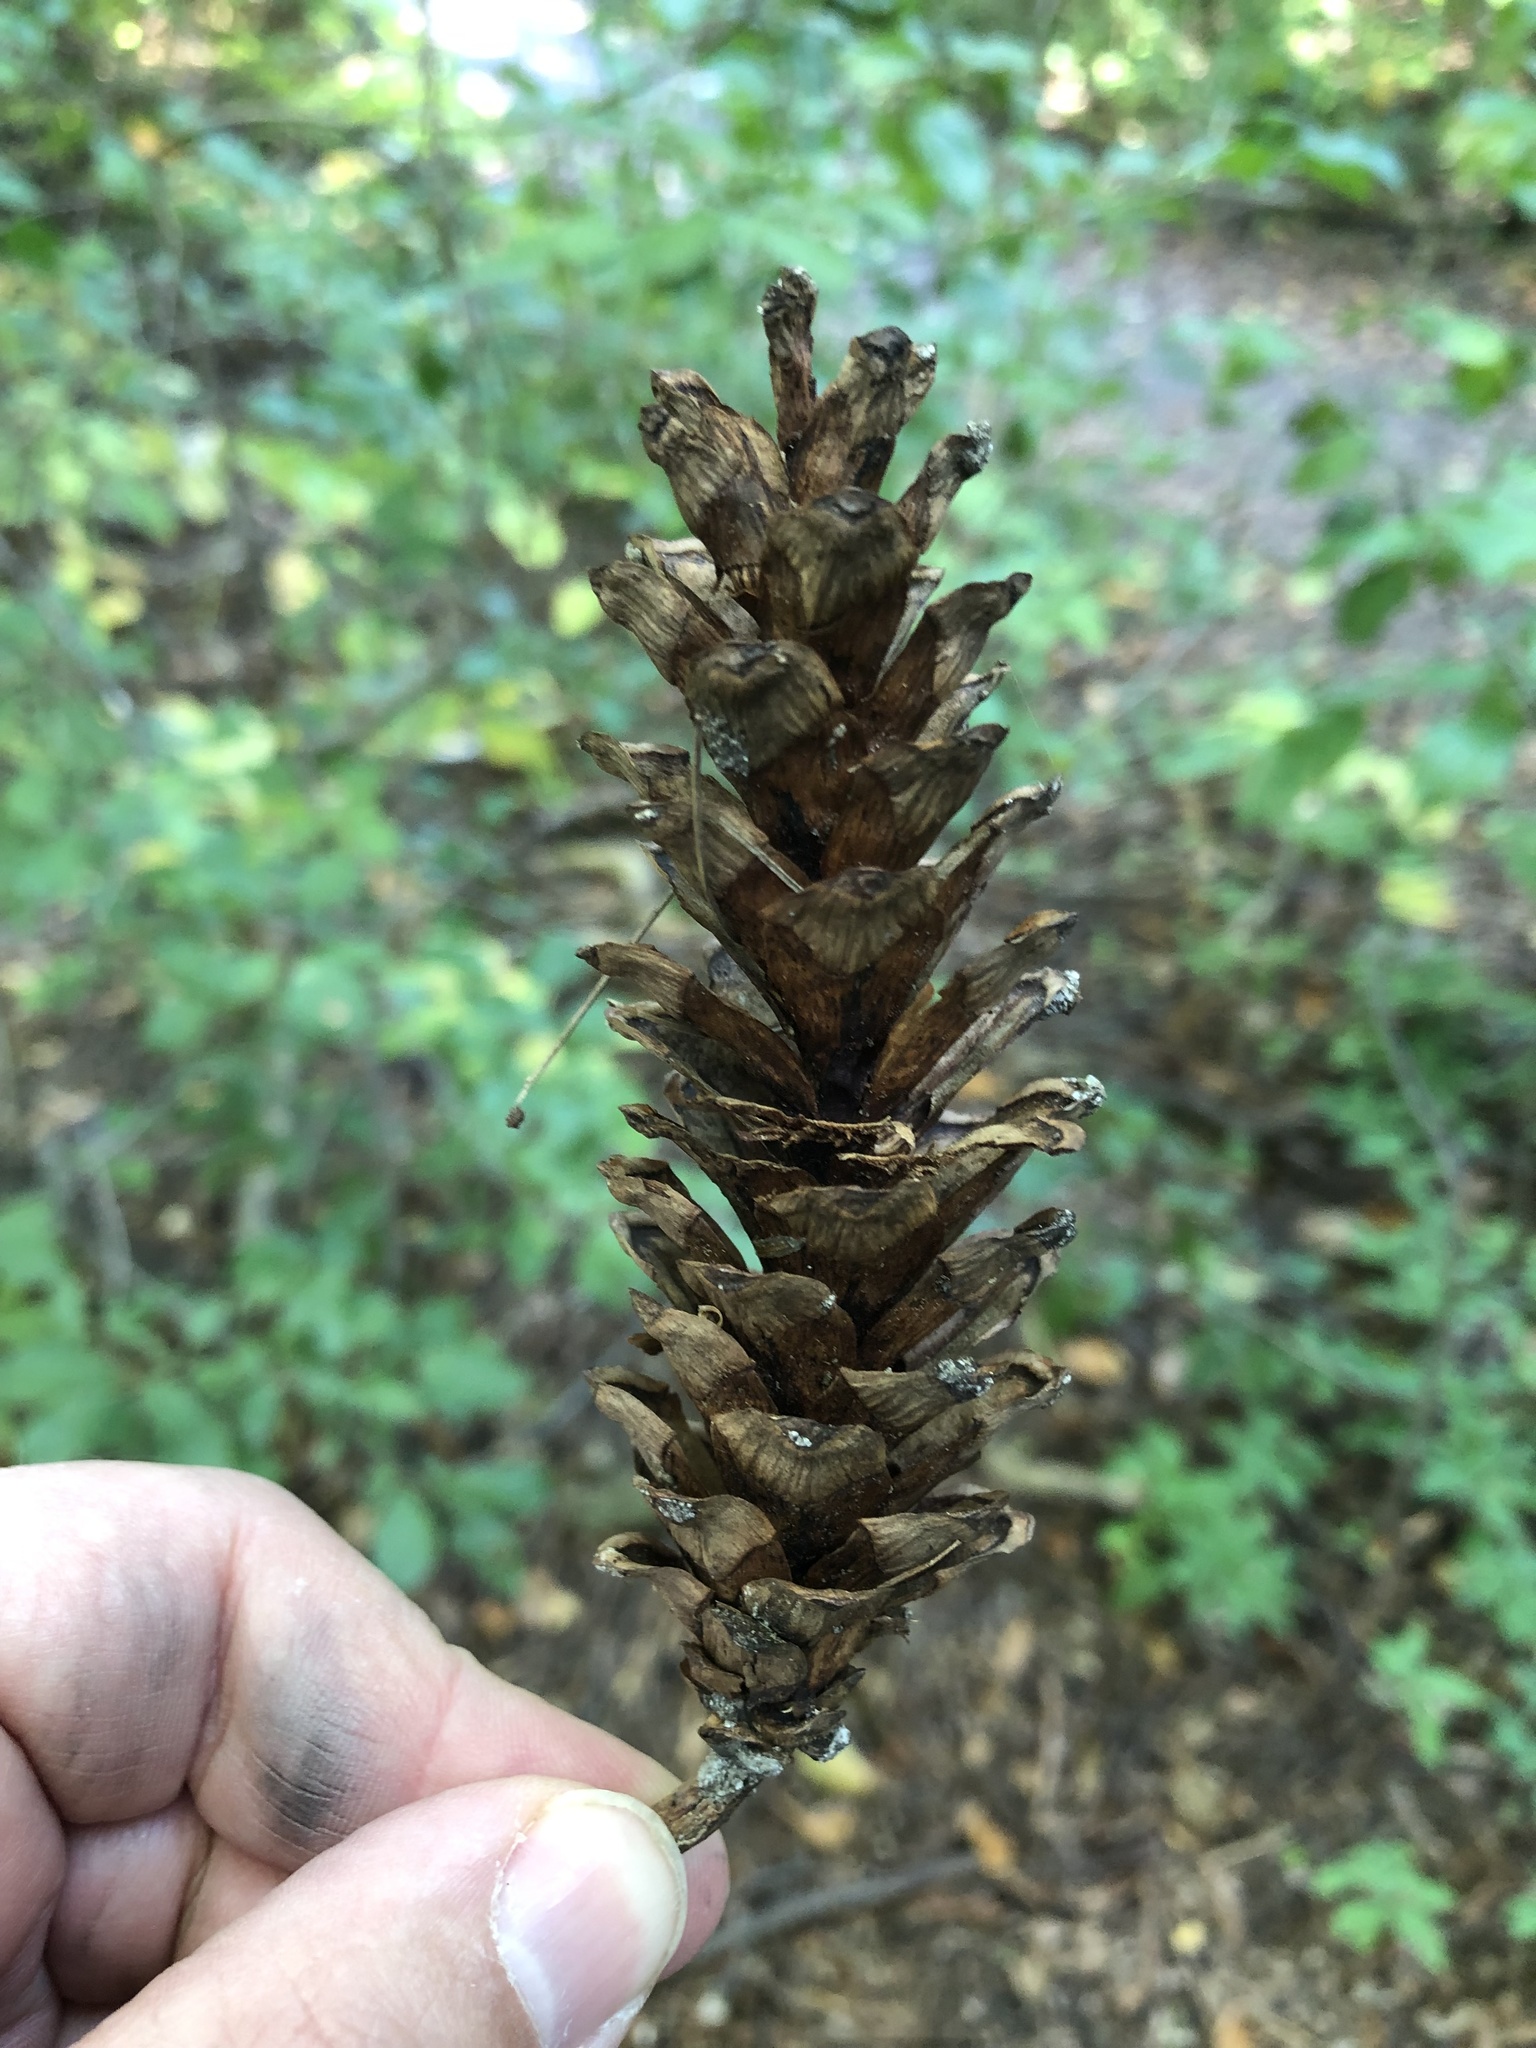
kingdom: Plantae
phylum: Tracheophyta
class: Pinopsida
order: Pinales
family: Pinaceae
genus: Pinus
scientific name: Pinus strobus
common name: Weymouth pine
